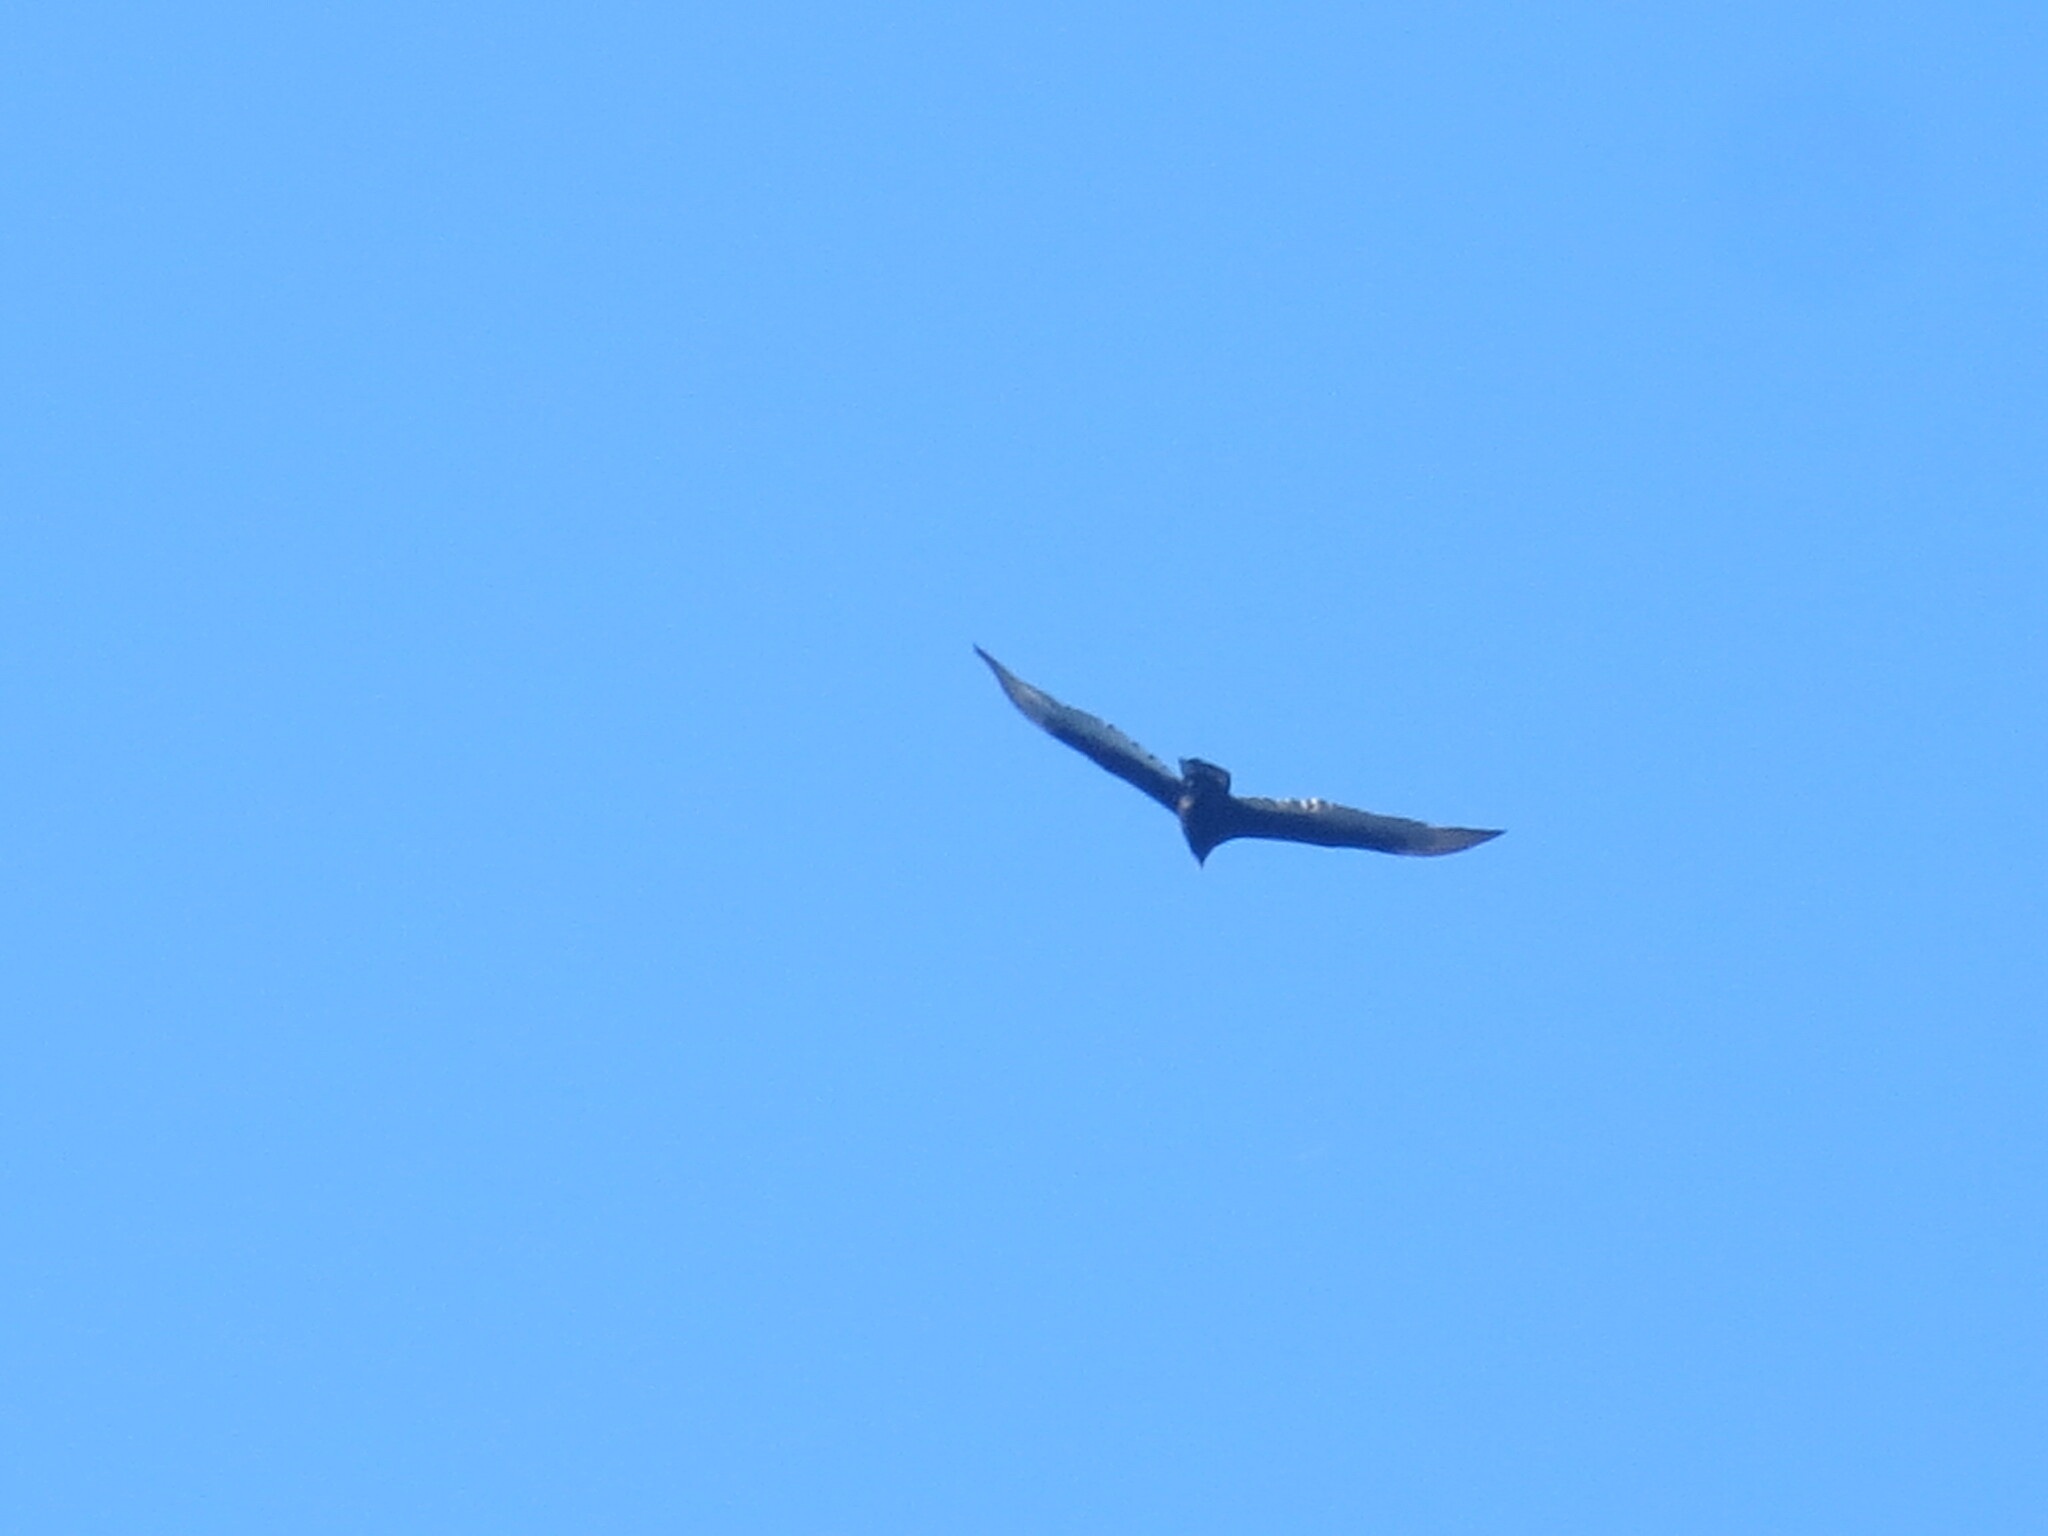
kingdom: Animalia
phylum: Chordata
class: Aves
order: Accipitriformes
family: Cathartidae
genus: Cathartes
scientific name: Cathartes aura
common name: Turkey vulture
